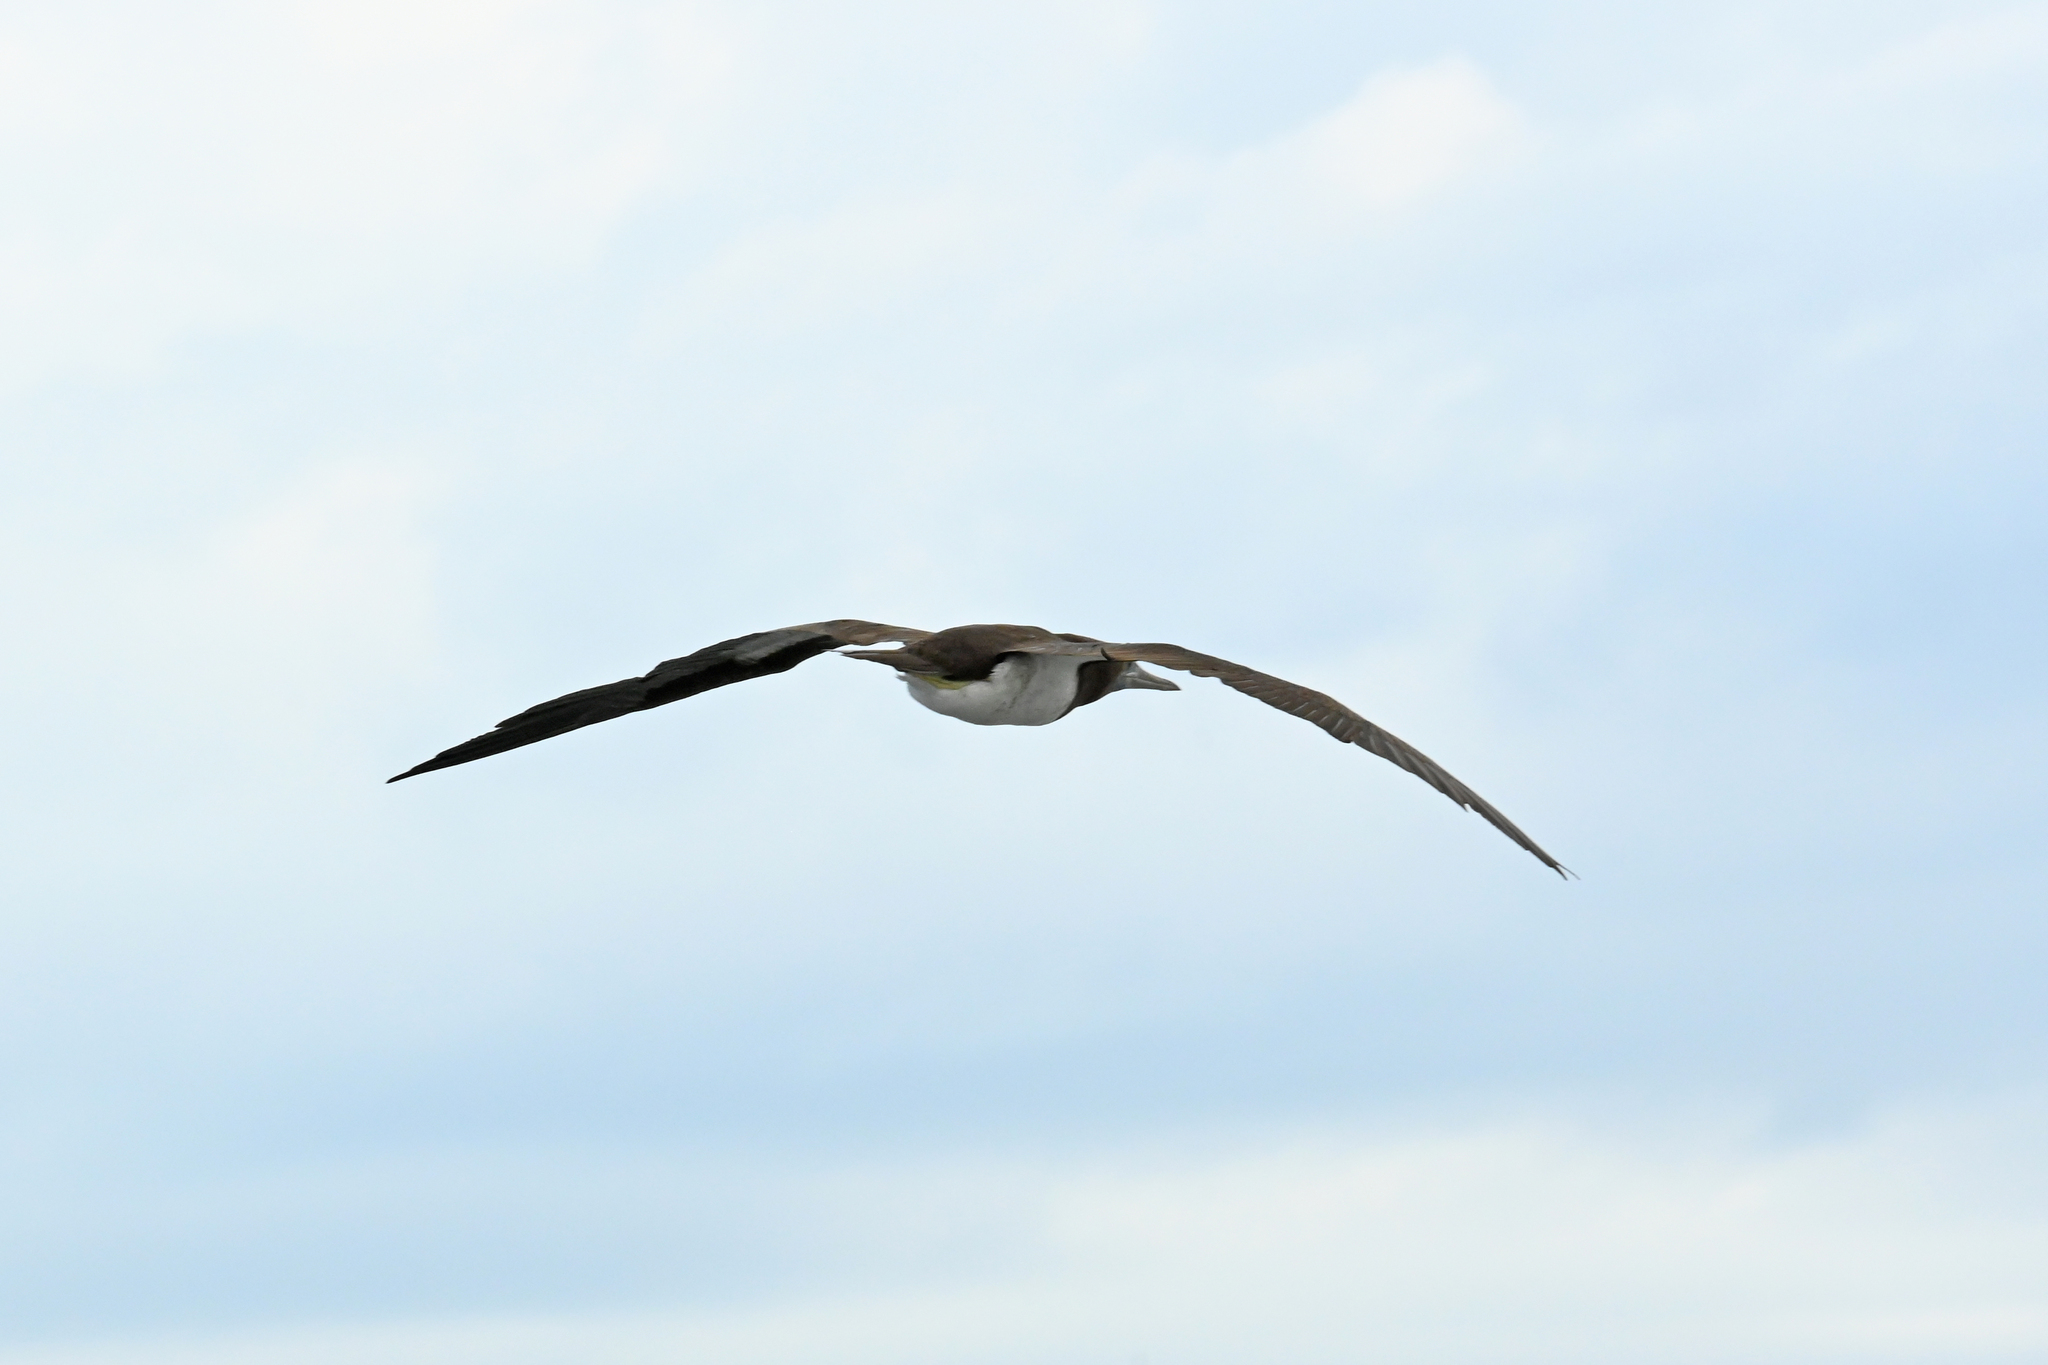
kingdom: Animalia
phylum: Chordata
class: Aves
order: Suliformes
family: Sulidae
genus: Sula
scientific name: Sula leucogaster
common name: Brown booby
